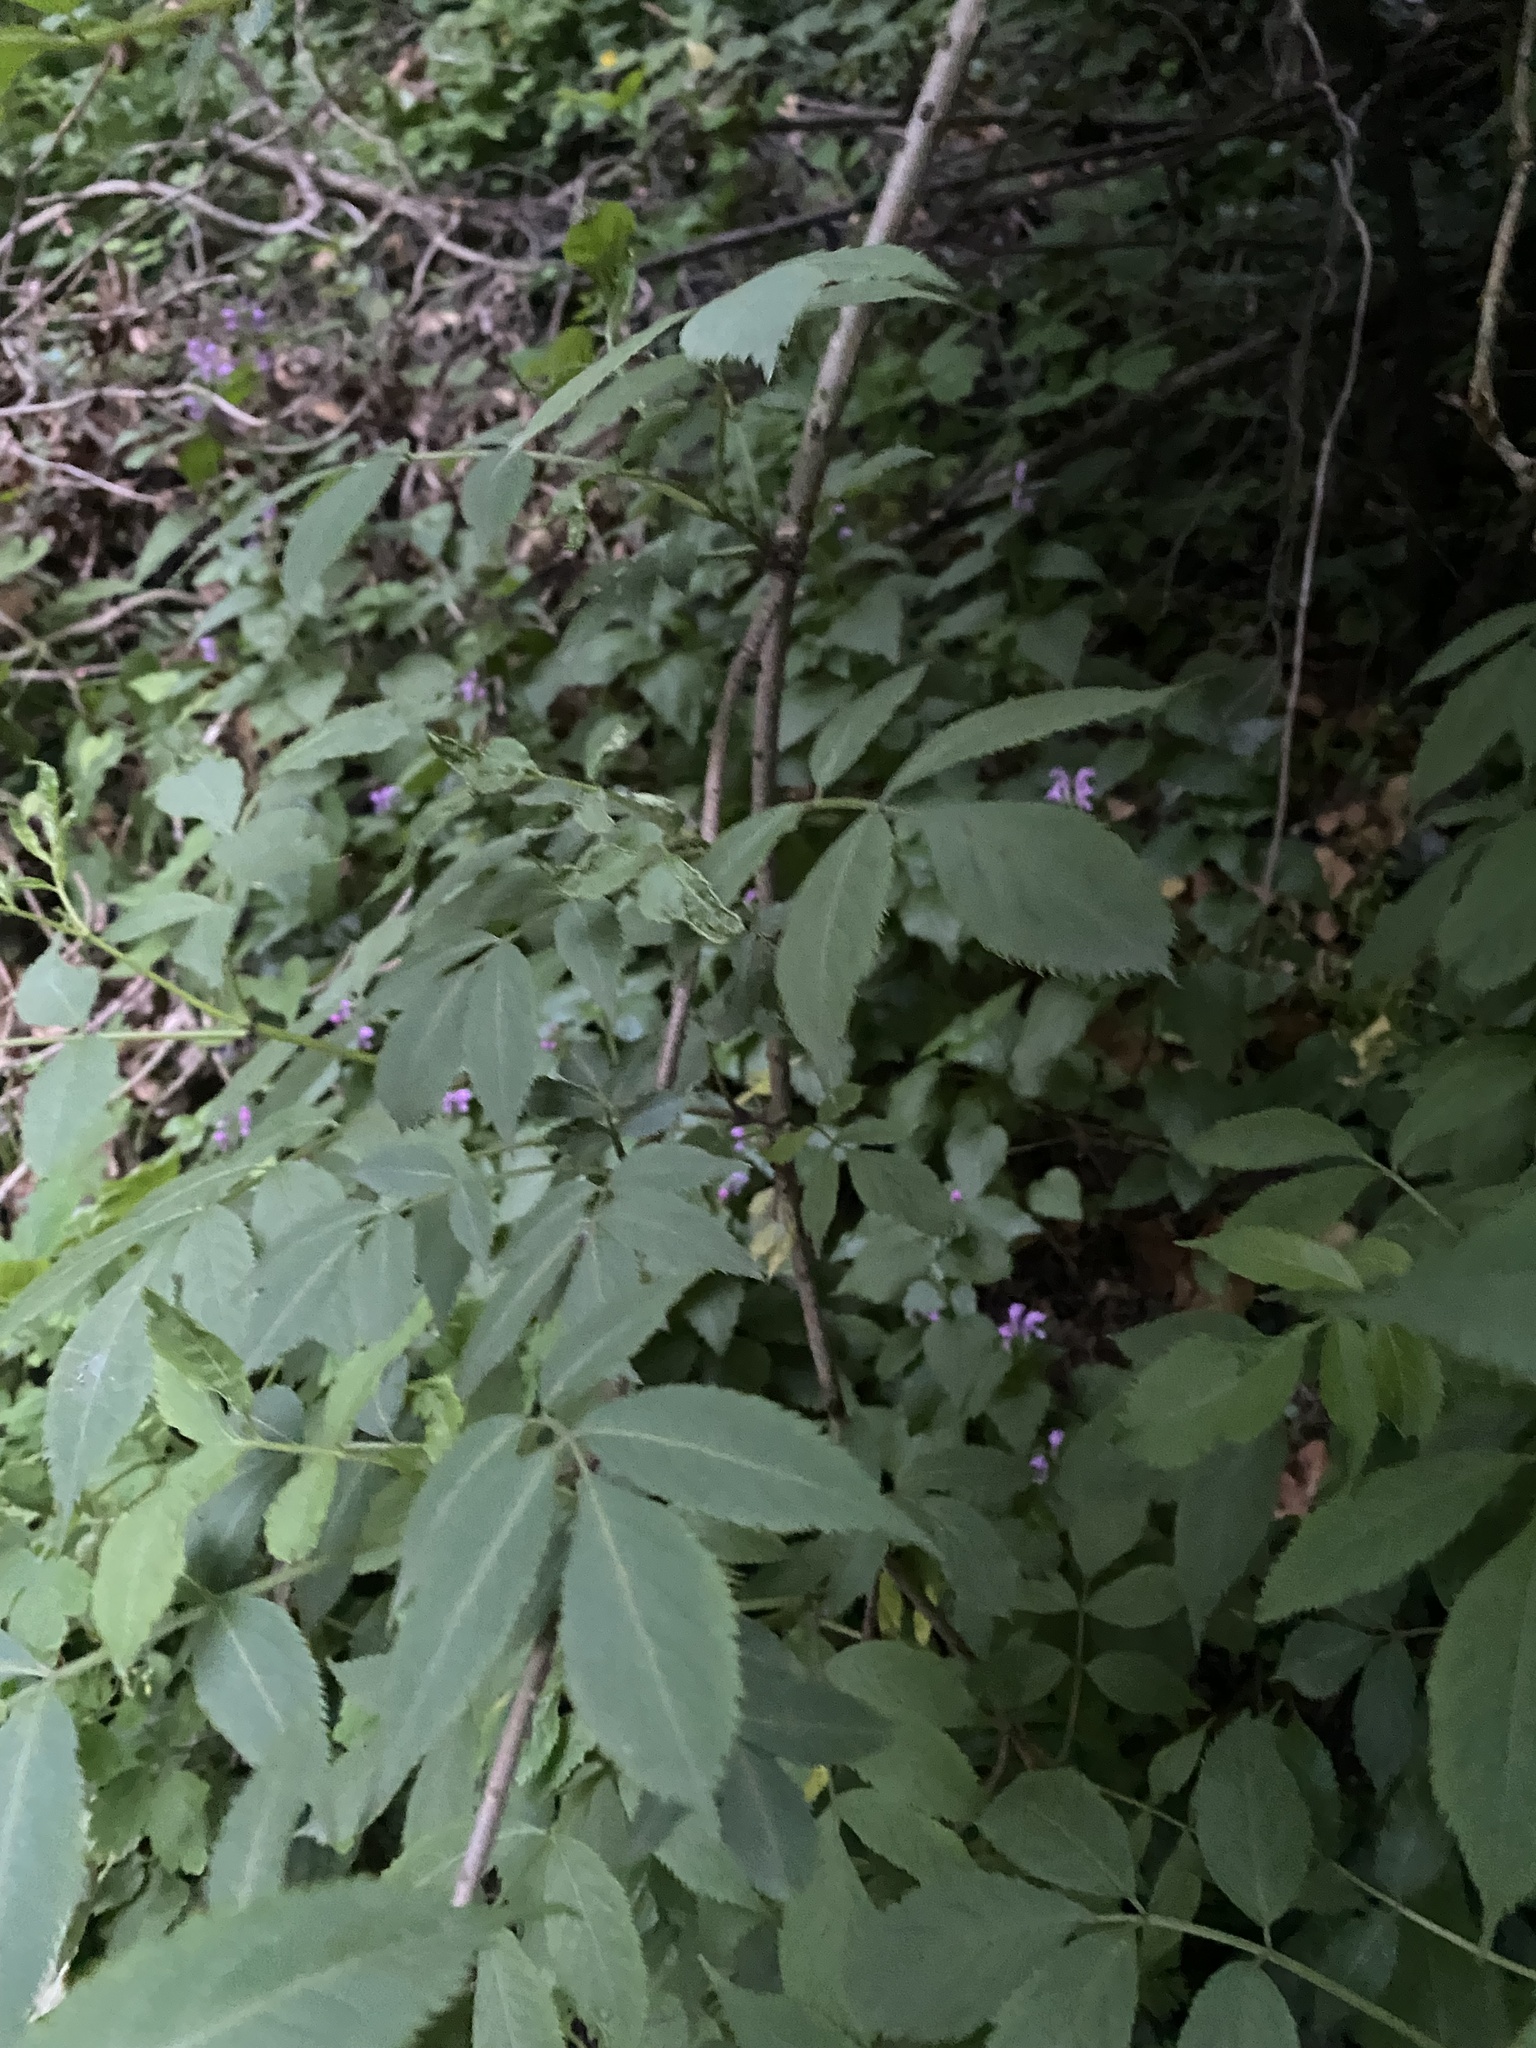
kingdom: Plantae
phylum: Tracheophyta
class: Magnoliopsida
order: Dipsacales
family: Viburnaceae
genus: Sambucus
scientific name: Sambucus nigra
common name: Elder
